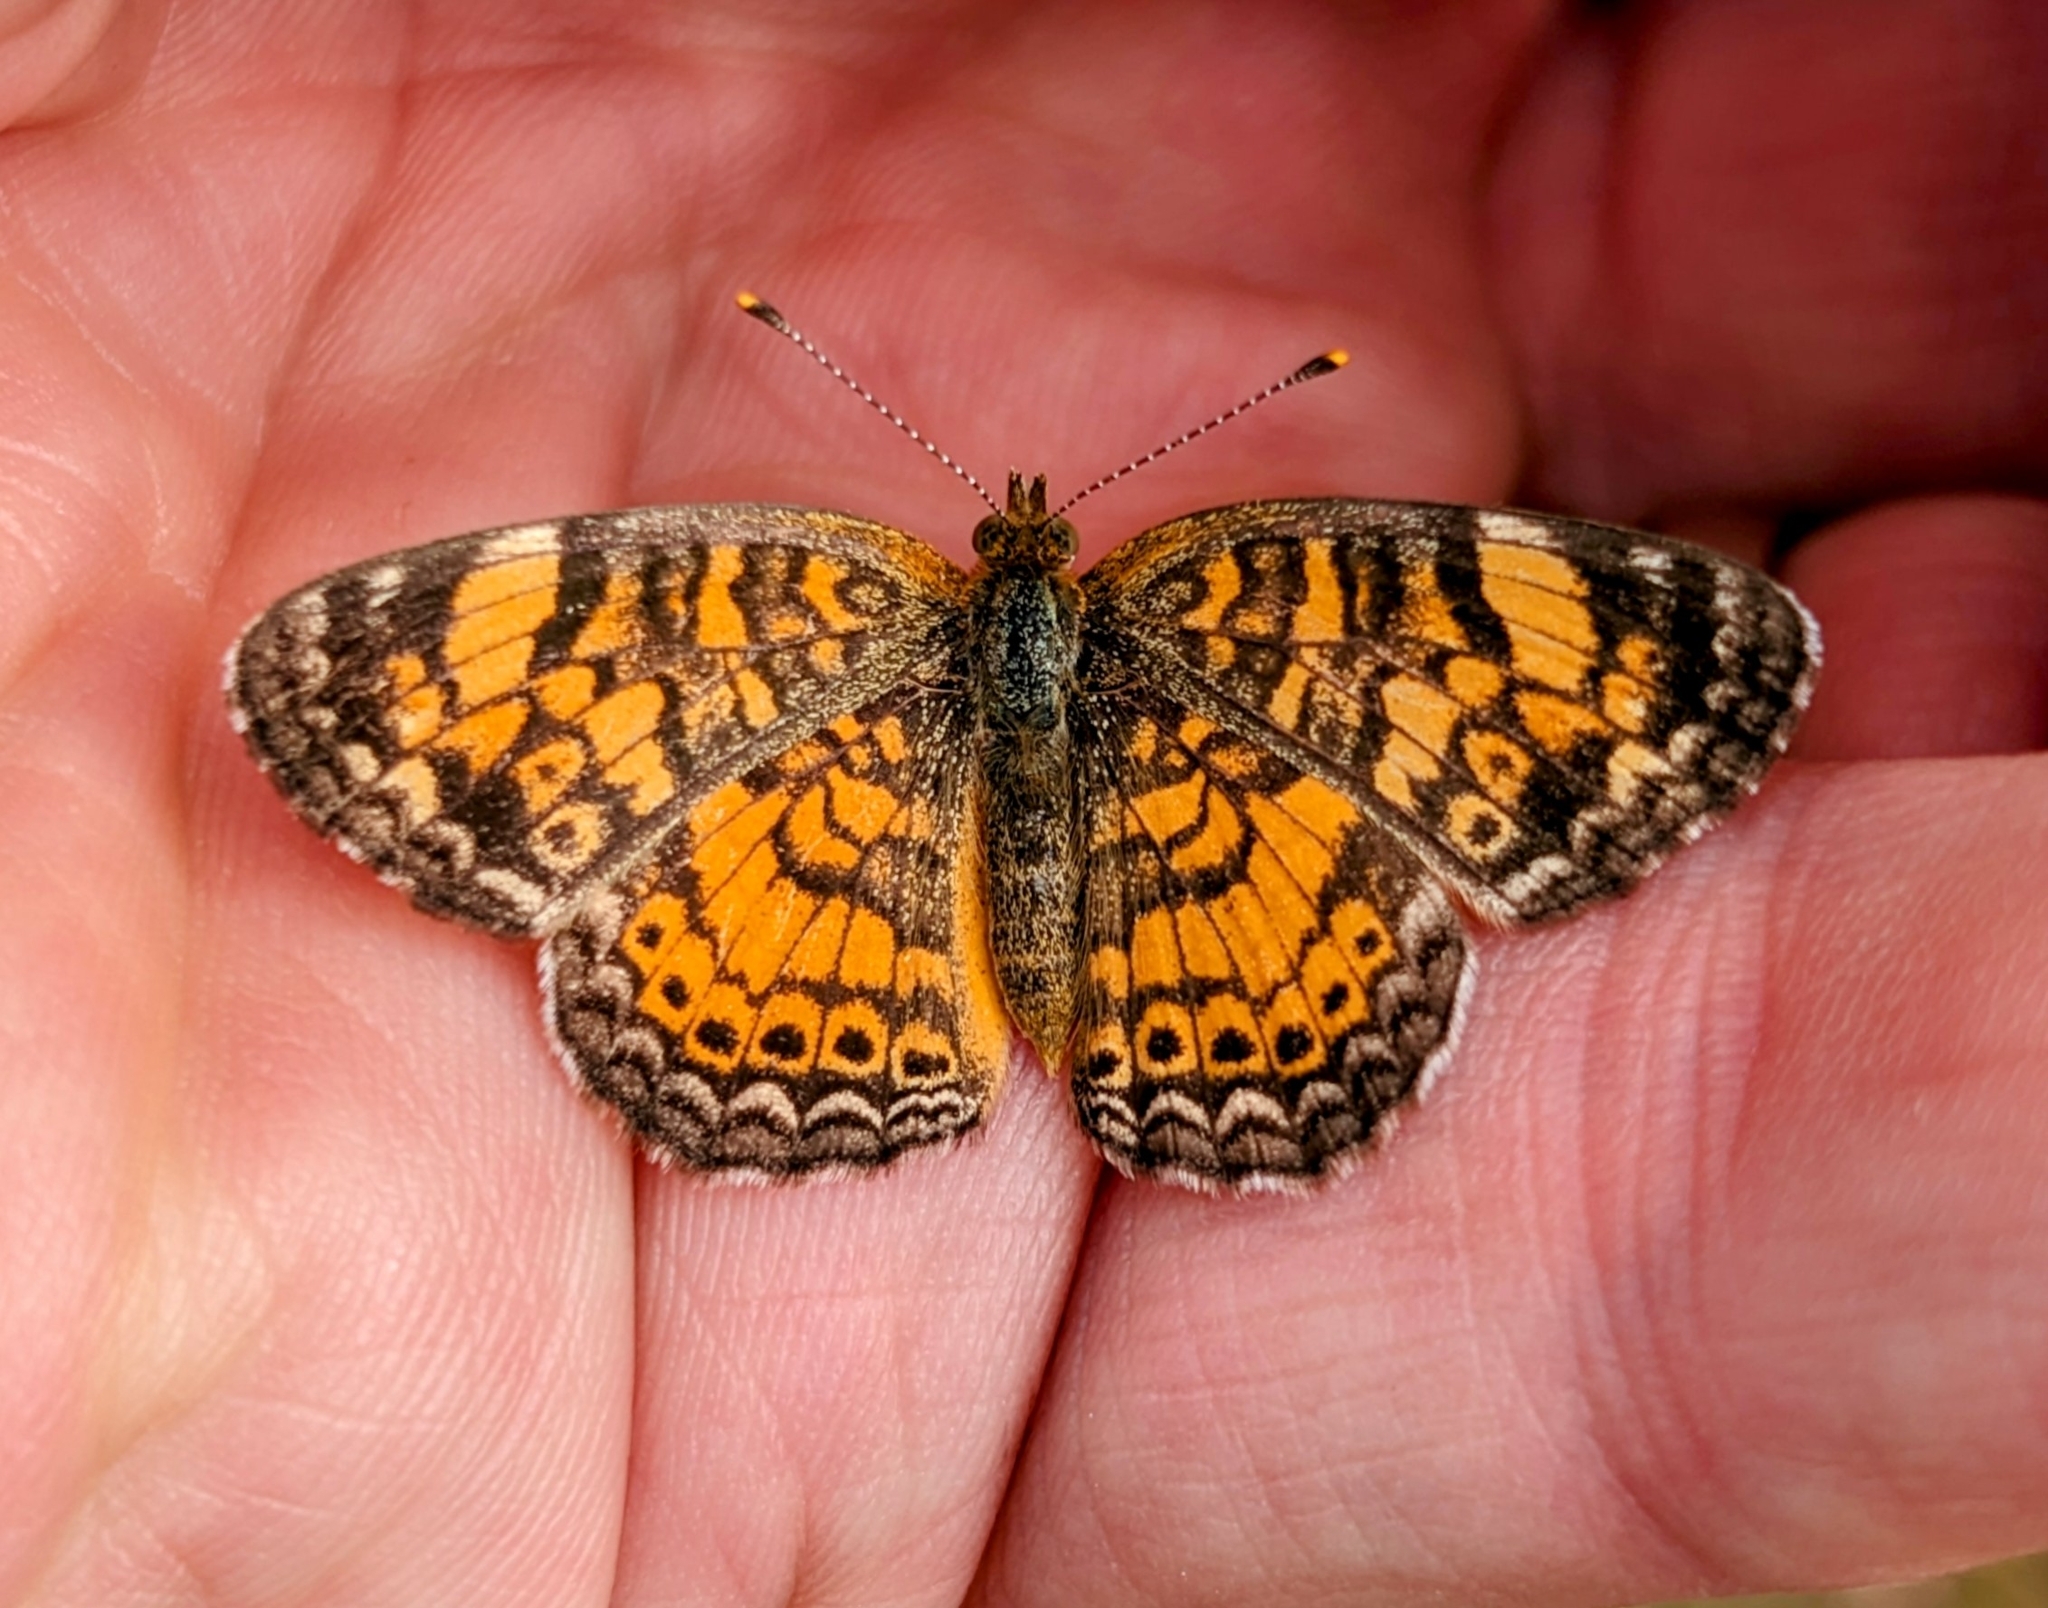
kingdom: Animalia
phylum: Arthropoda
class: Insecta
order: Lepidoptera
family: Nymphalidae
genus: Phyciodes
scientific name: Phyciodes tharos
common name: Pearl crescent
